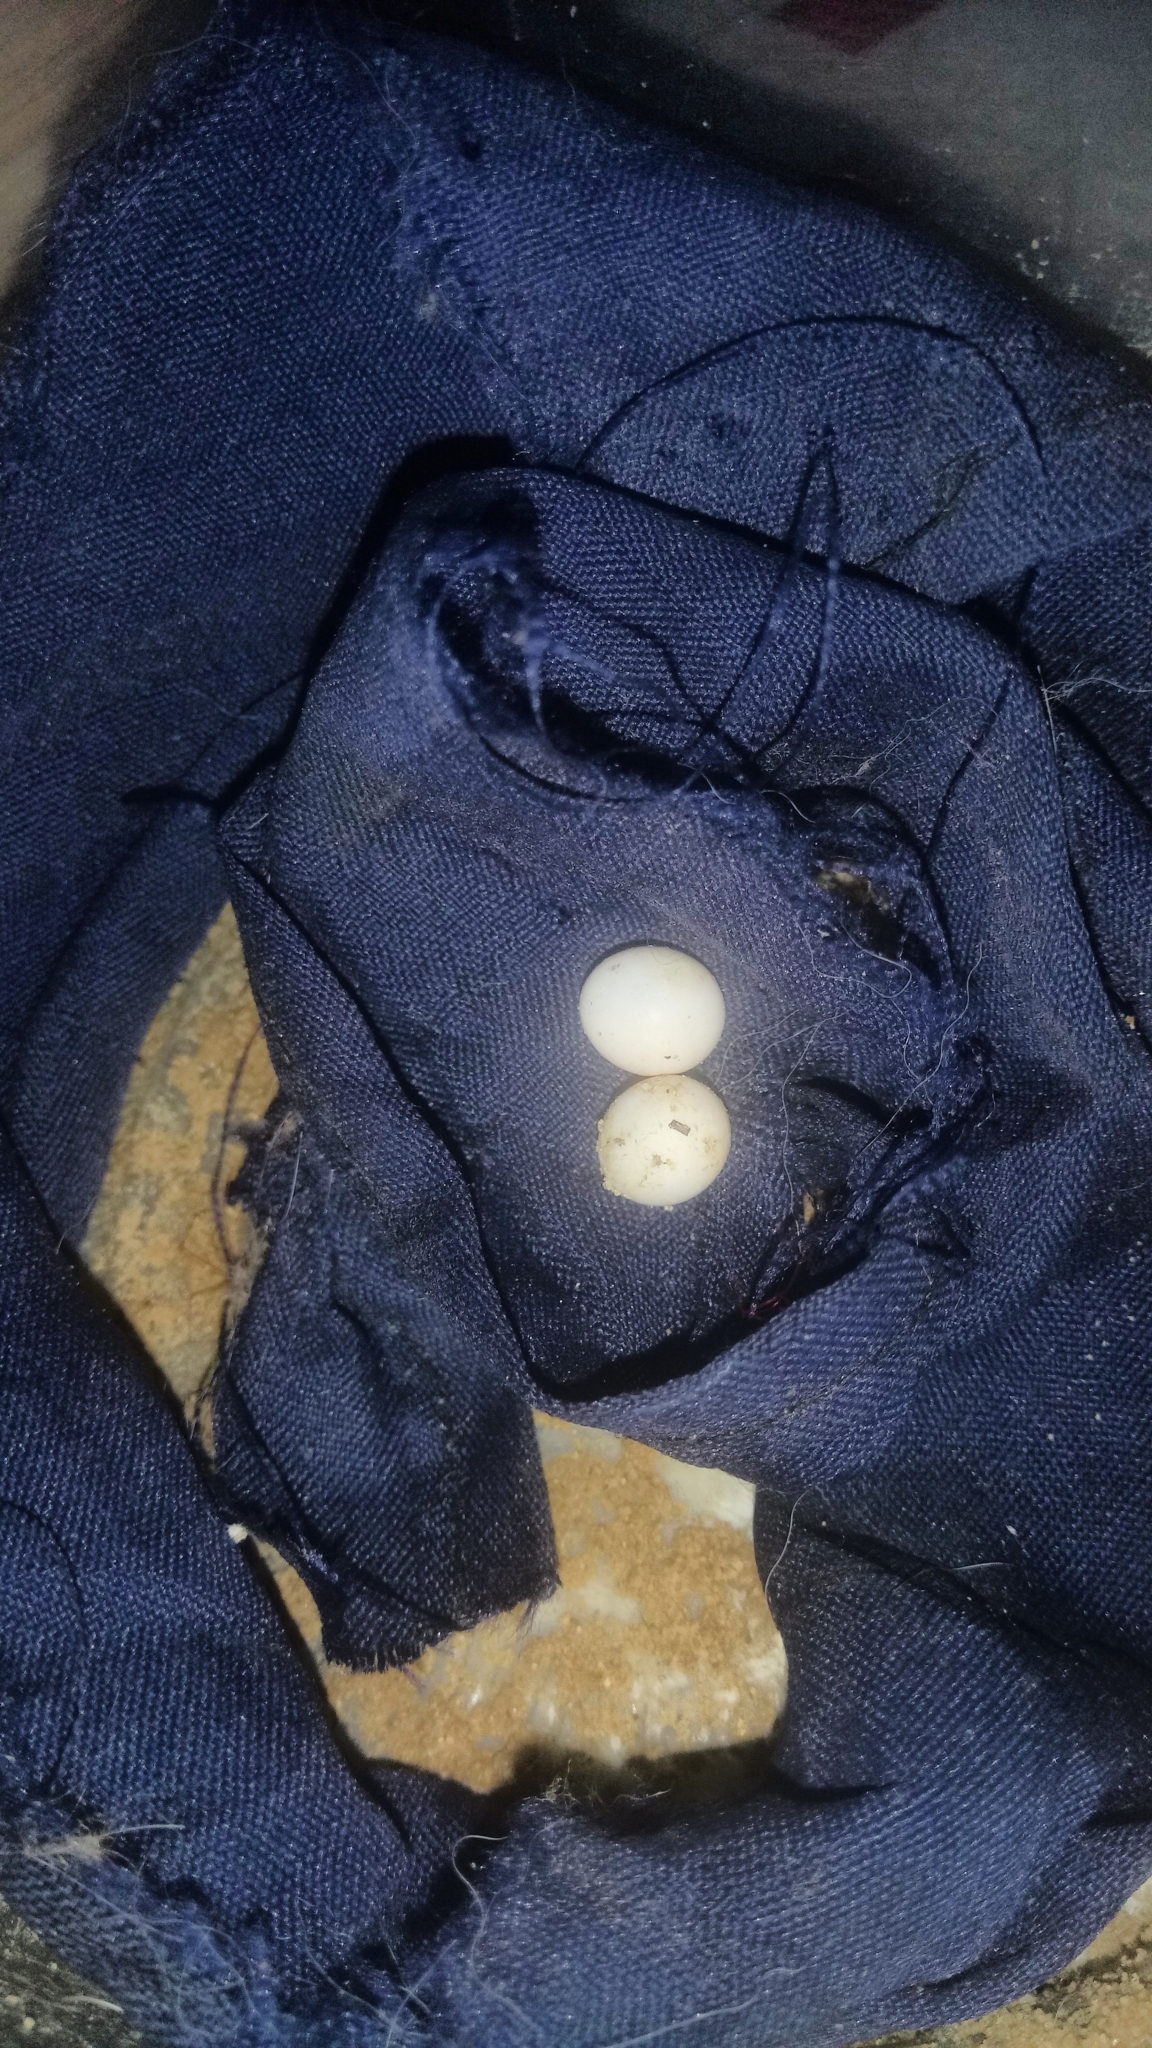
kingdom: Animalia
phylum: Chordata
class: Squamata
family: Gekkonidae
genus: Hemidactylus
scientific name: Hemidactylus frenatus
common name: Common house gecko
